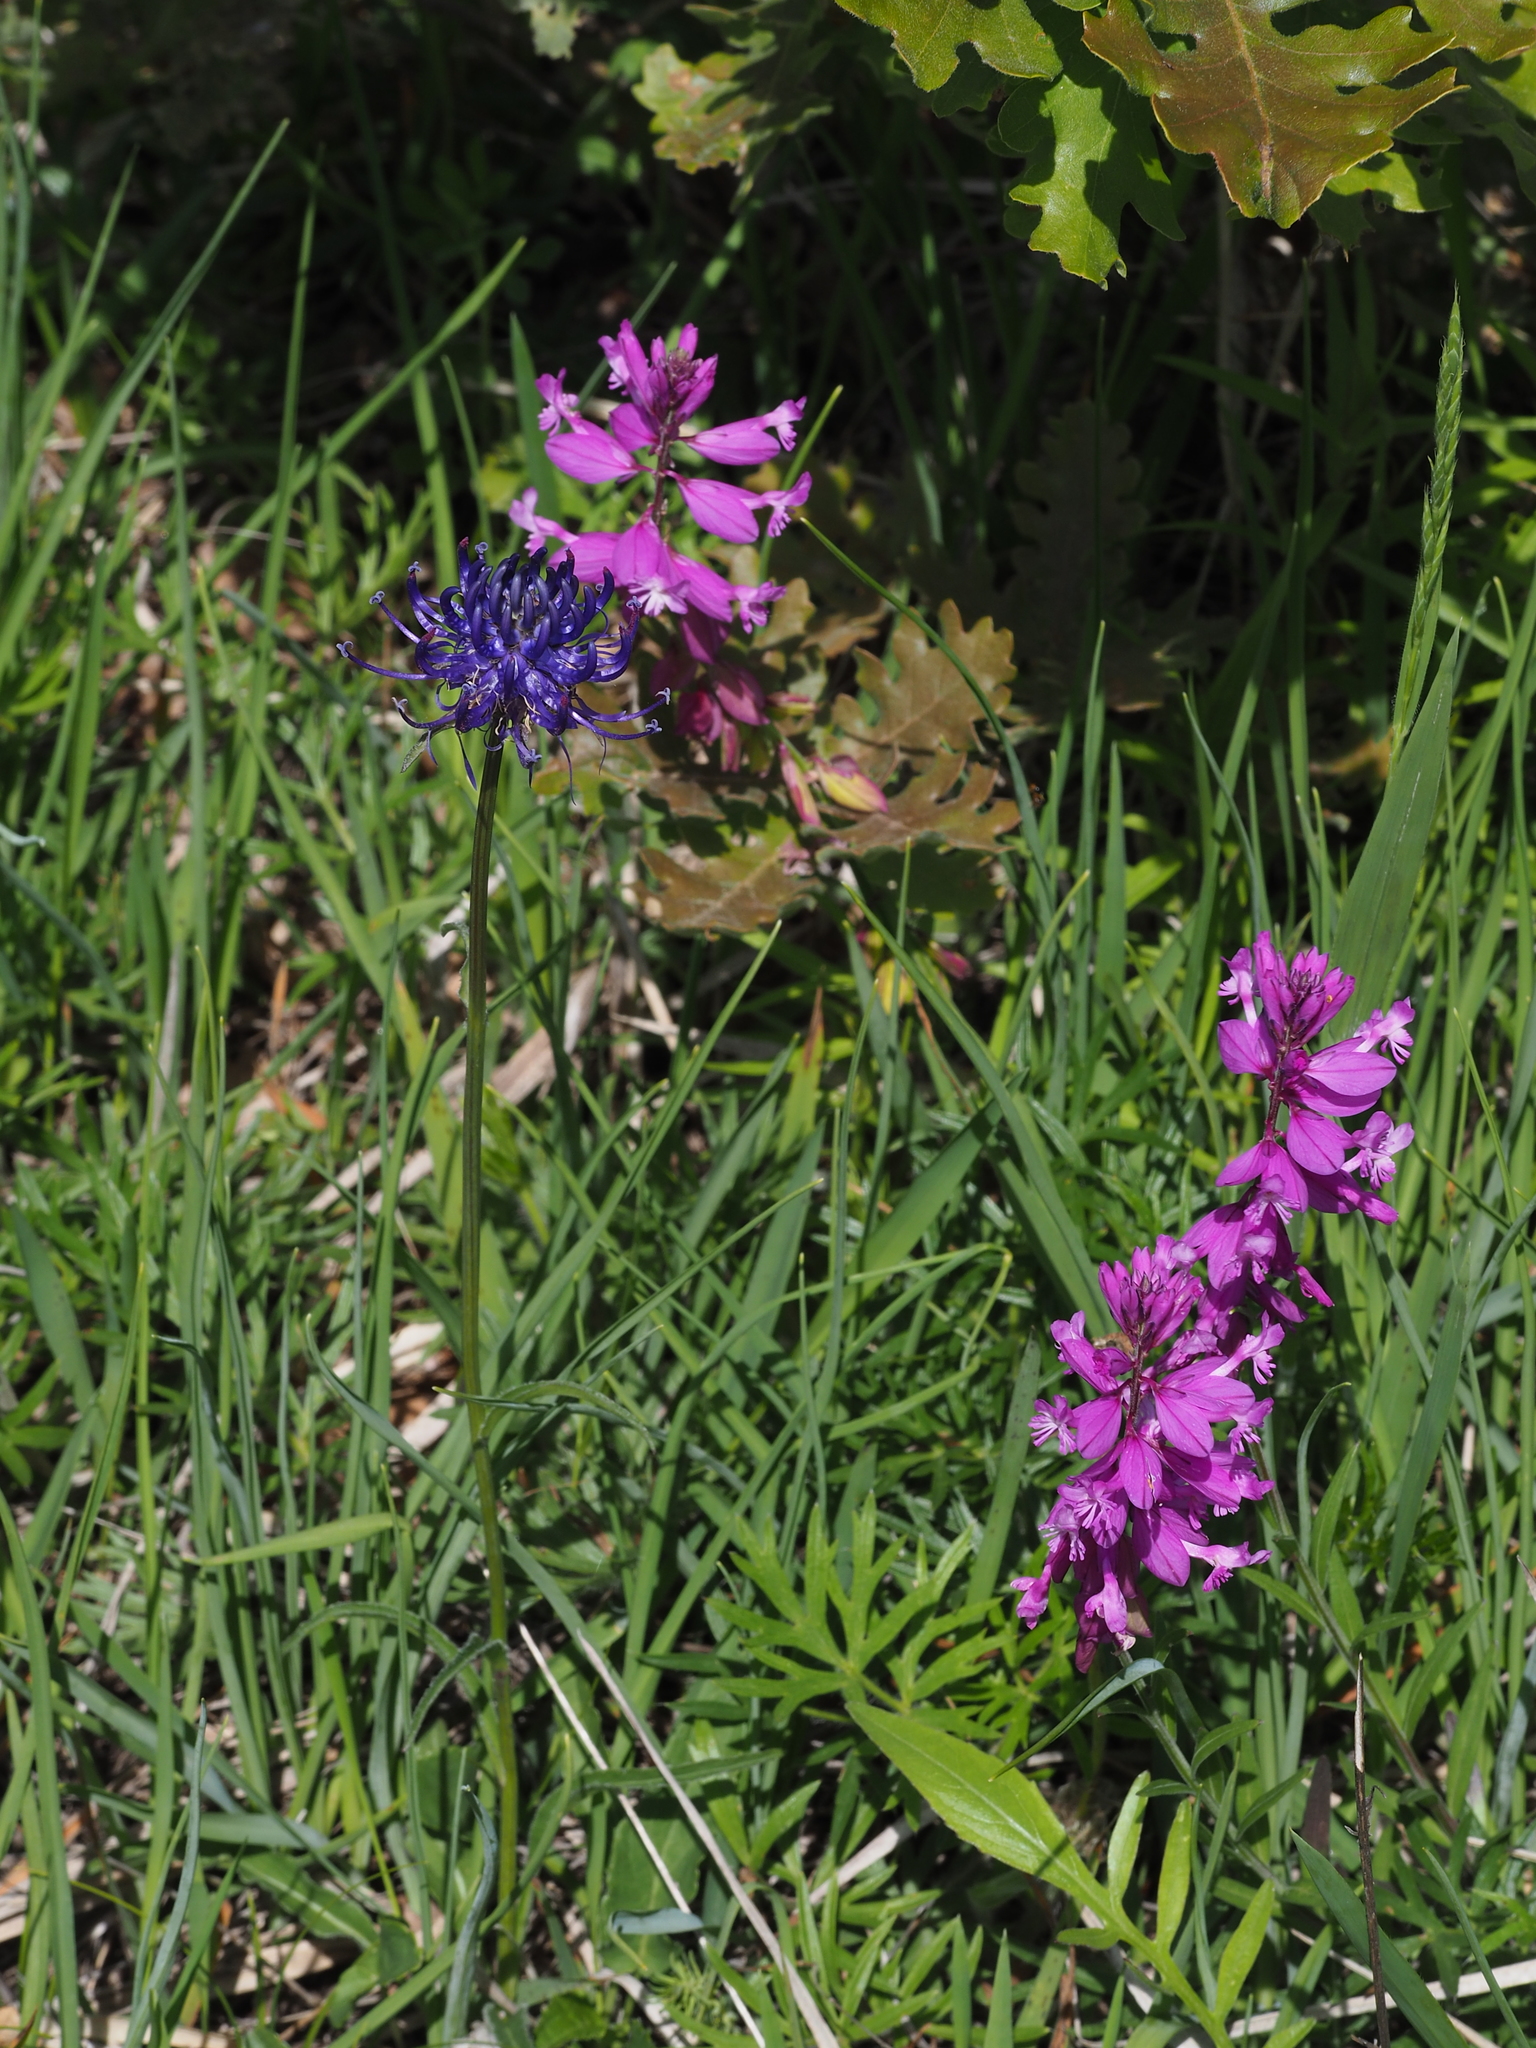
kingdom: Plantae
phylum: Tracheophyta
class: Magnoliopsida
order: Fabales
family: Polygalaceae
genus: Polygala
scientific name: Polygala major
